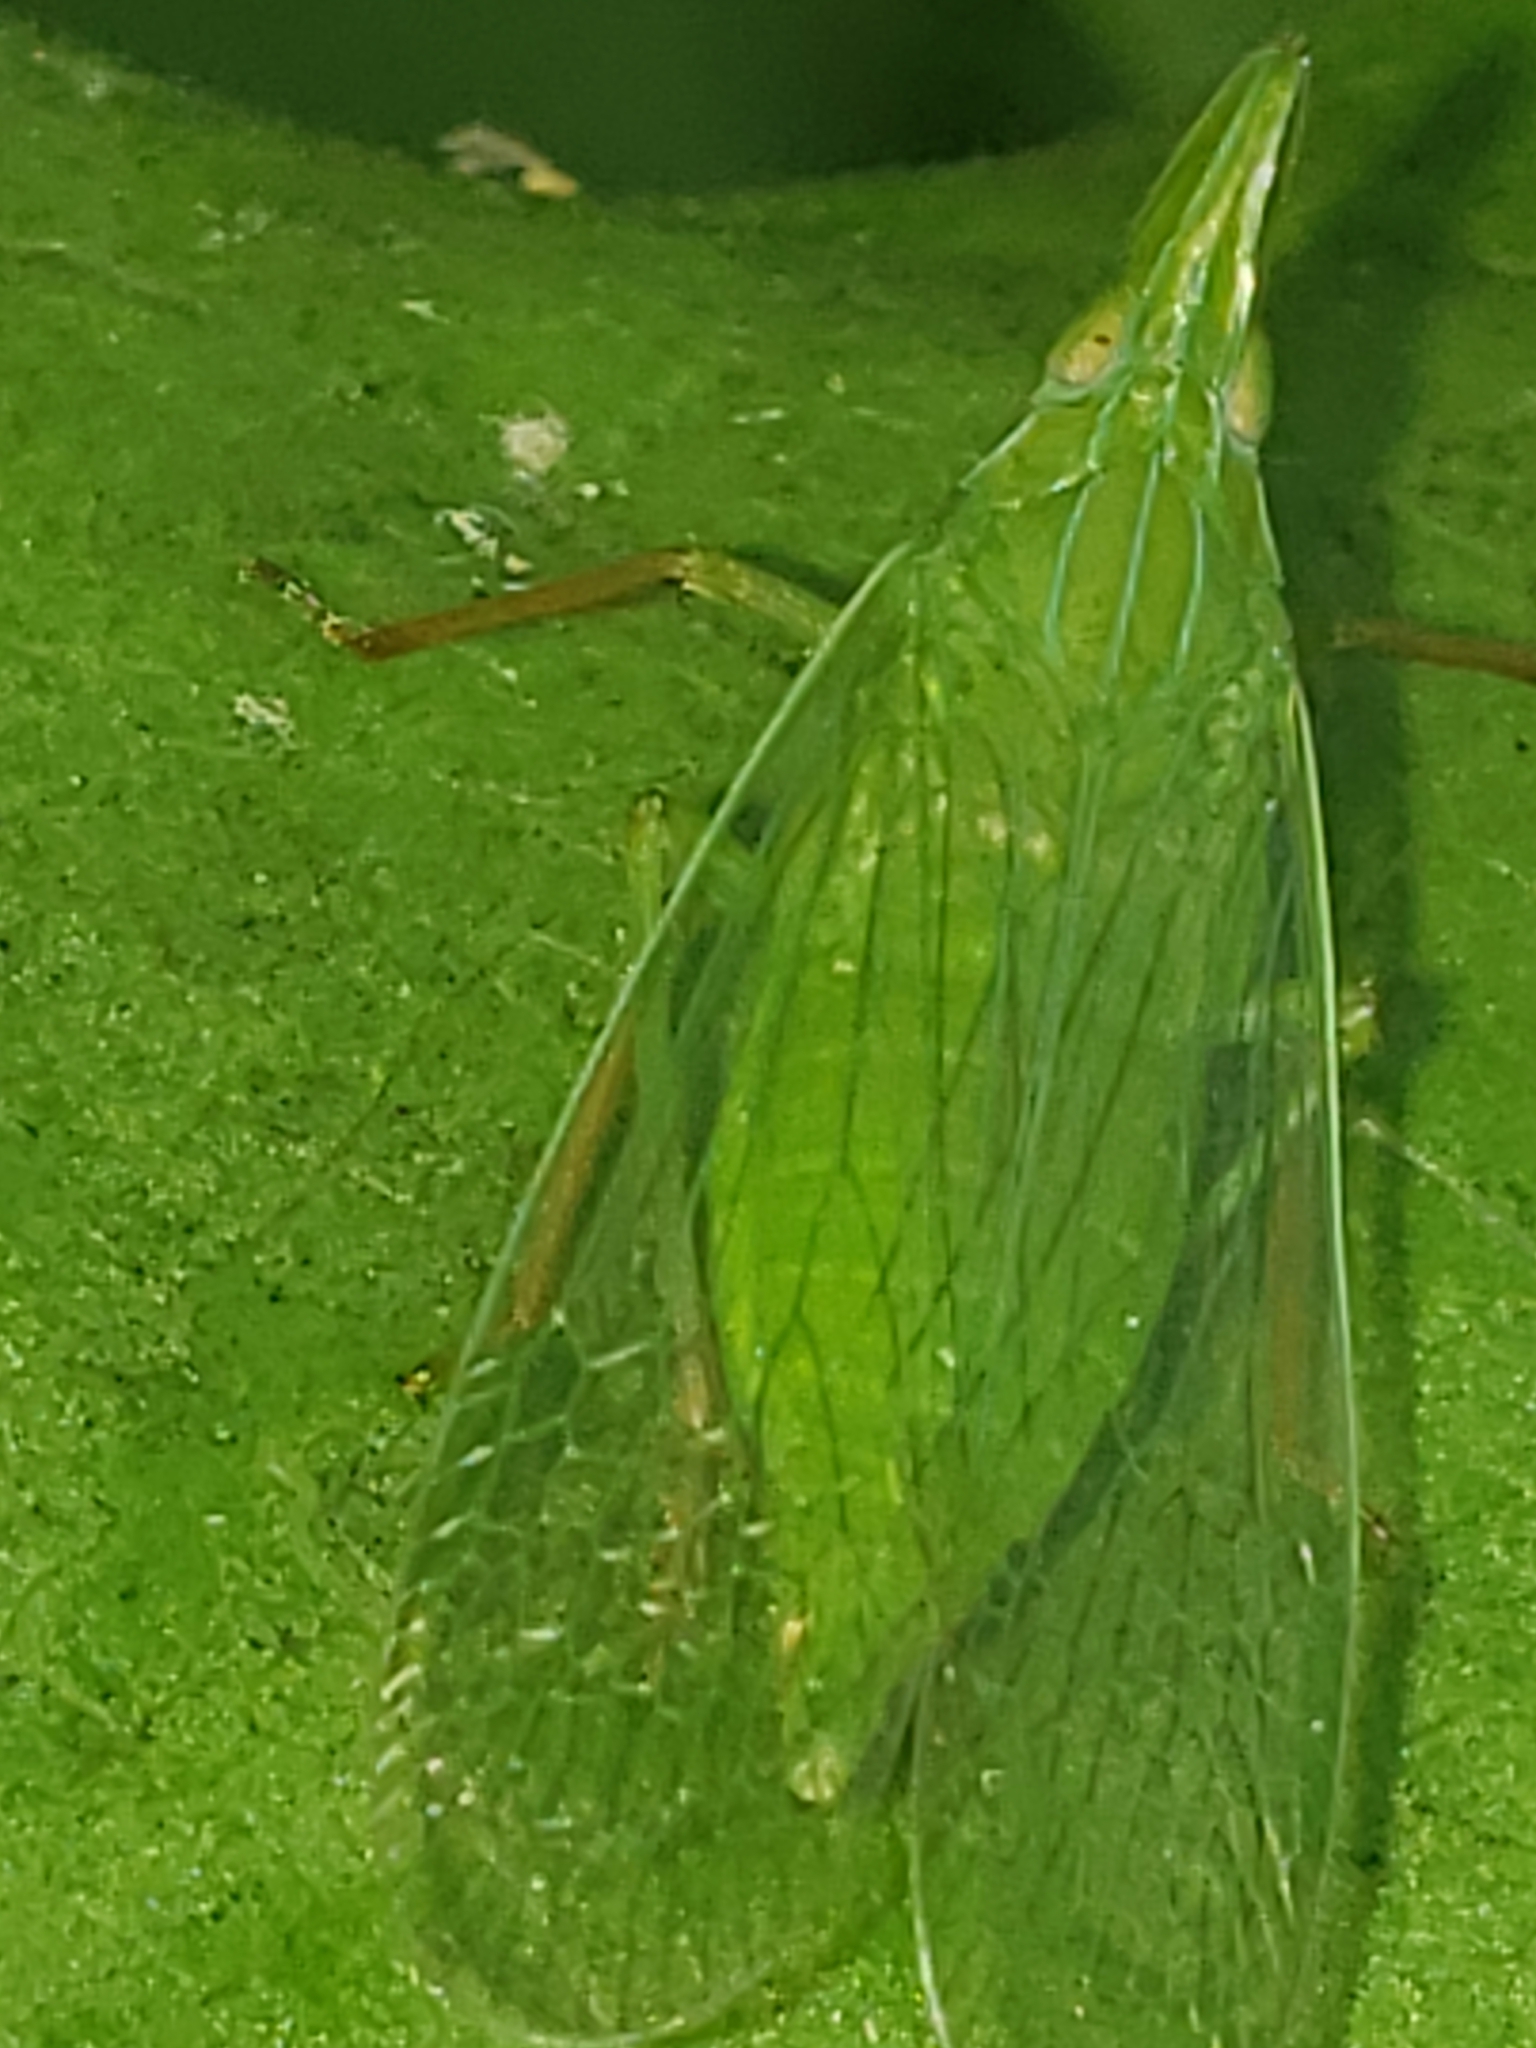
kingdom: Animalia
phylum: Arthropoda
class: Insecta
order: Hemiptera
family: Dictyopharidae
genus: Rhynchomitra
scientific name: Rhynchomitra microrhina
